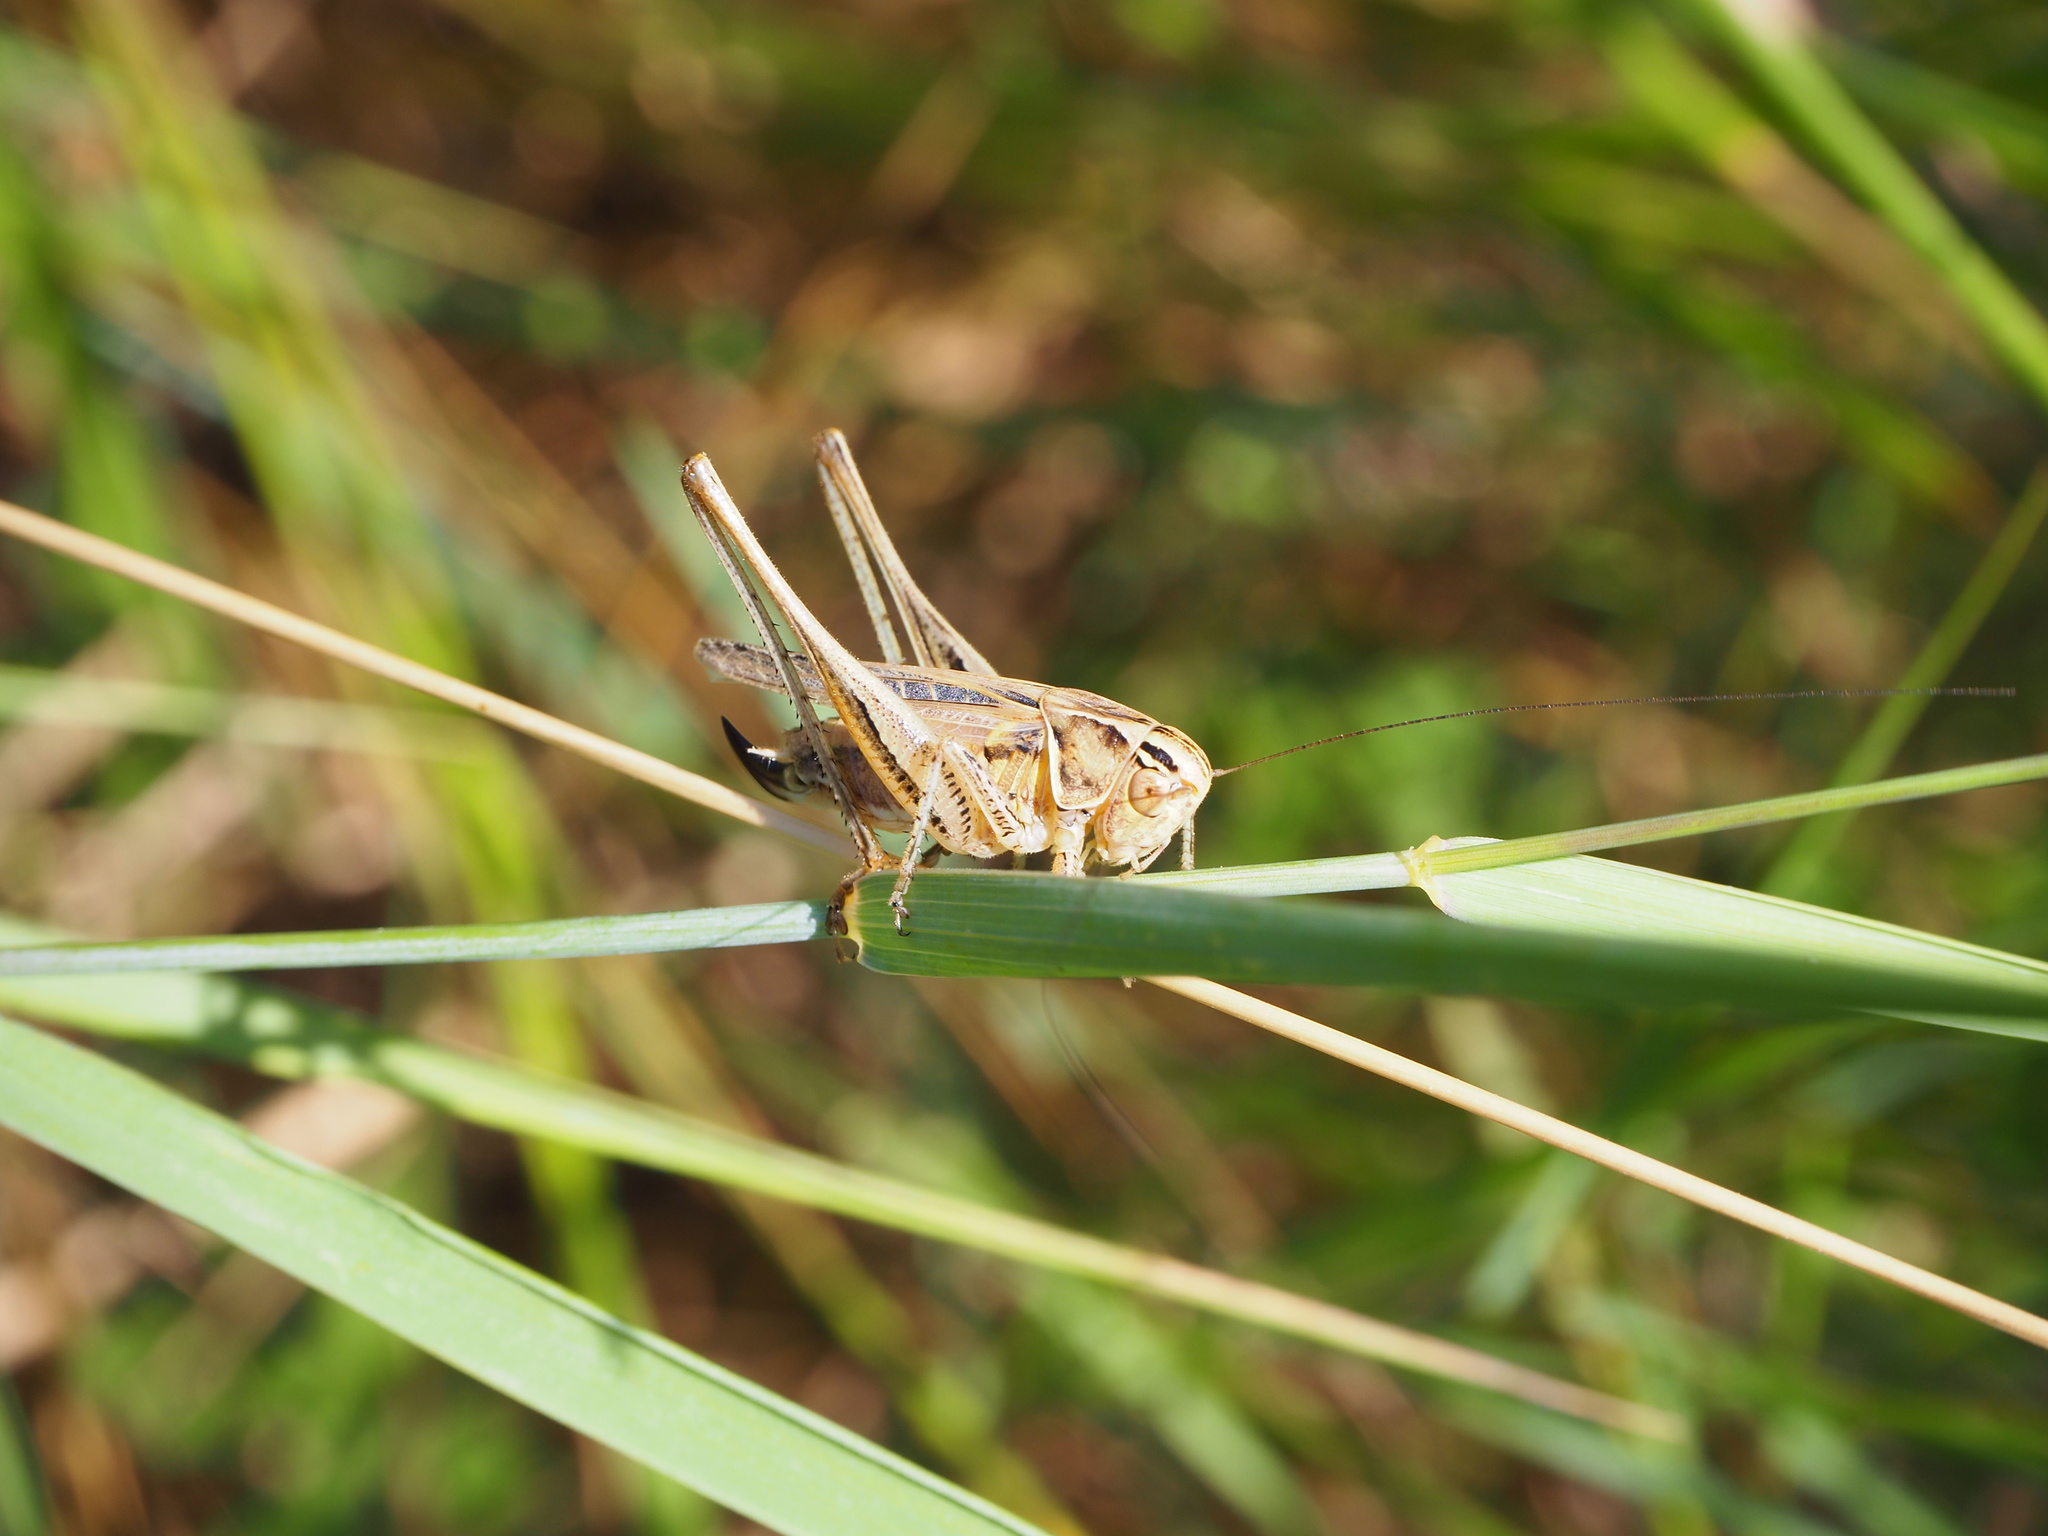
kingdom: Animalia
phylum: Arthropoda
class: Insecta
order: Orthoptera
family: Tettigoniidae
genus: Tessellana
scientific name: Tessellana tessellata
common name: Grasshopper
